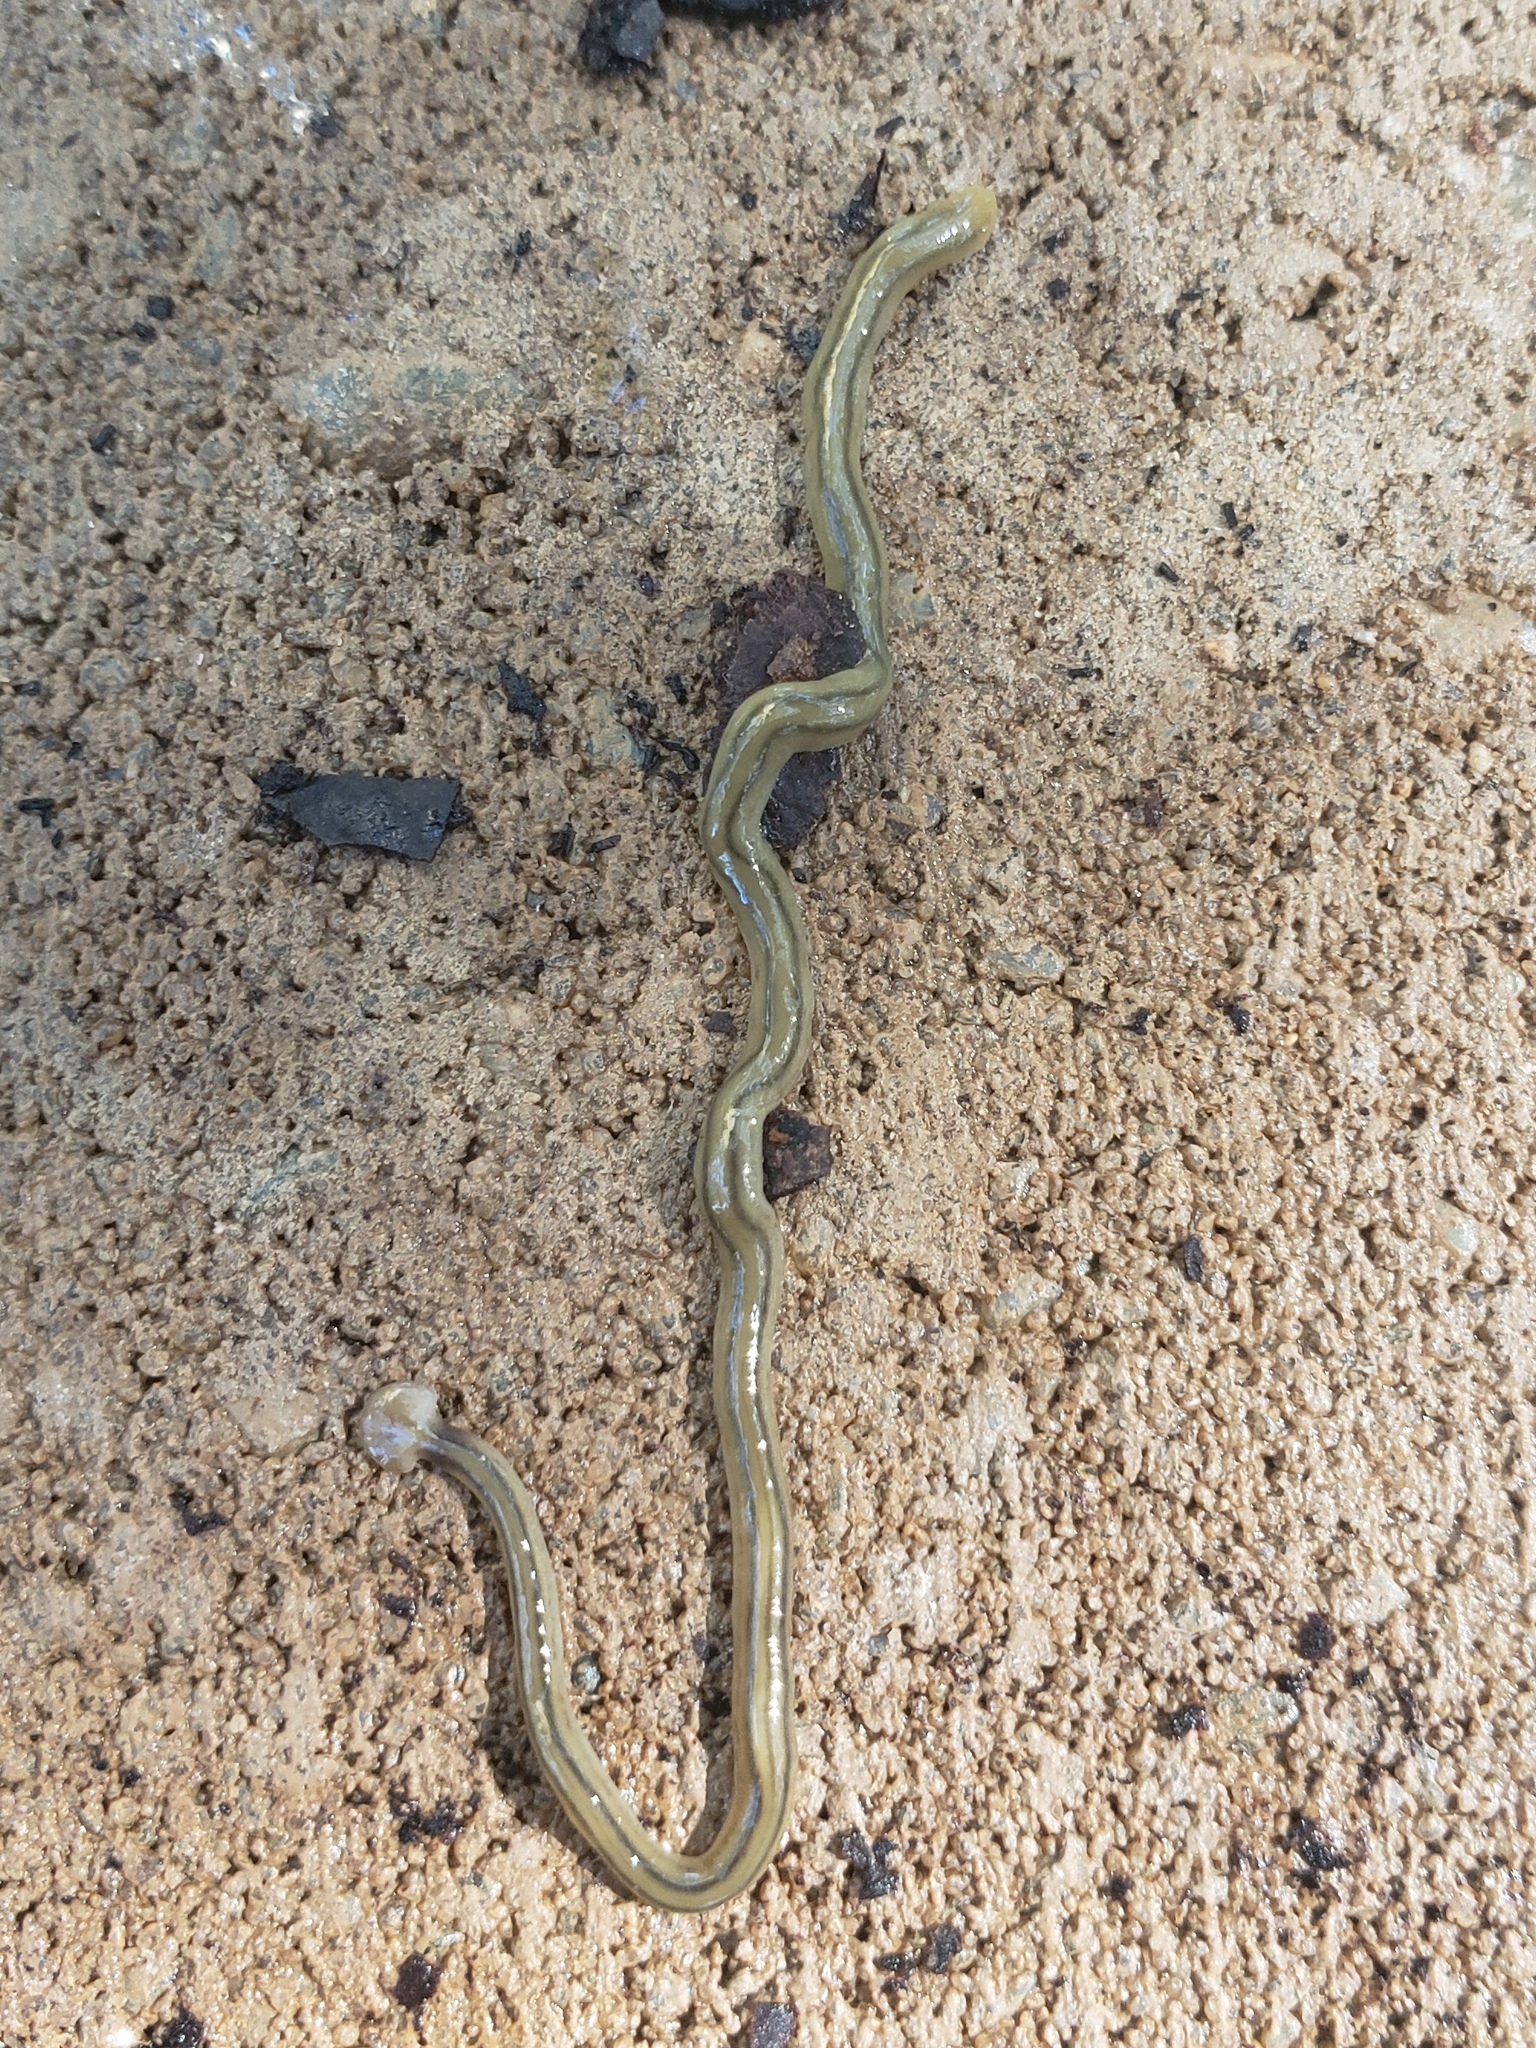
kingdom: Animalia
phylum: Platyhelminthes
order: Tricladida
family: Geoplanidae
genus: Bipalium
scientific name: Bipalium kewense
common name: Hammerhead flatworm
